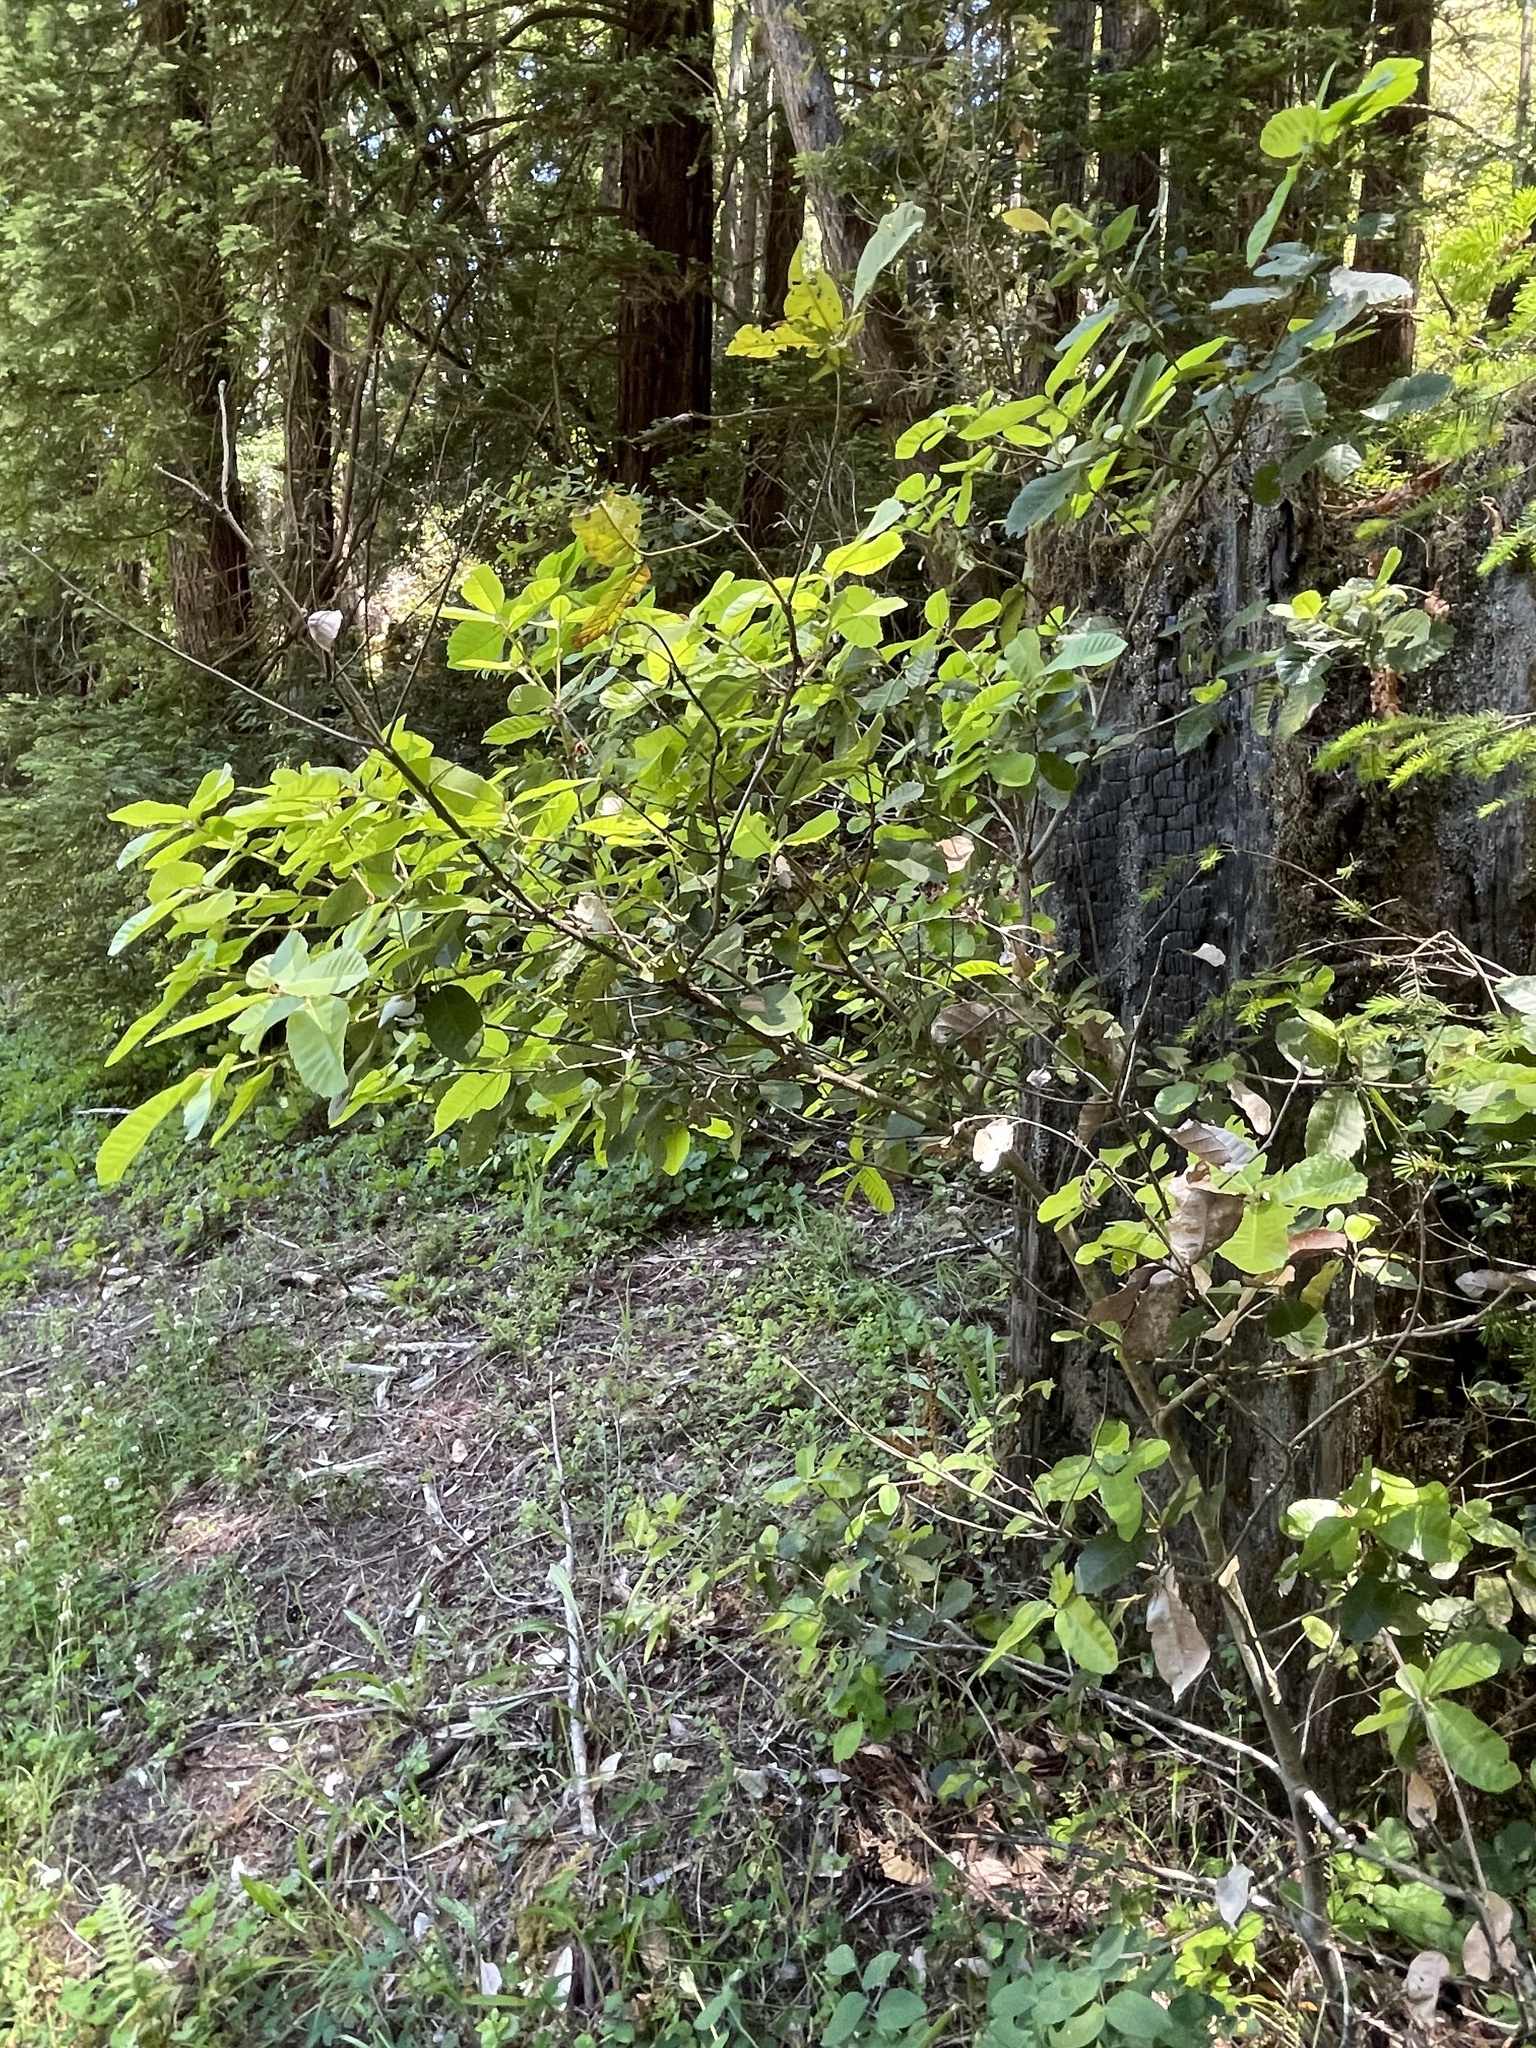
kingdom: Plantae
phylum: Tracheophyta
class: Magnoliopsida
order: Fagales
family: Fagaceae
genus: Notholithocarpus
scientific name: Notholithocarpus densiflorus
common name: Tan bark oak
